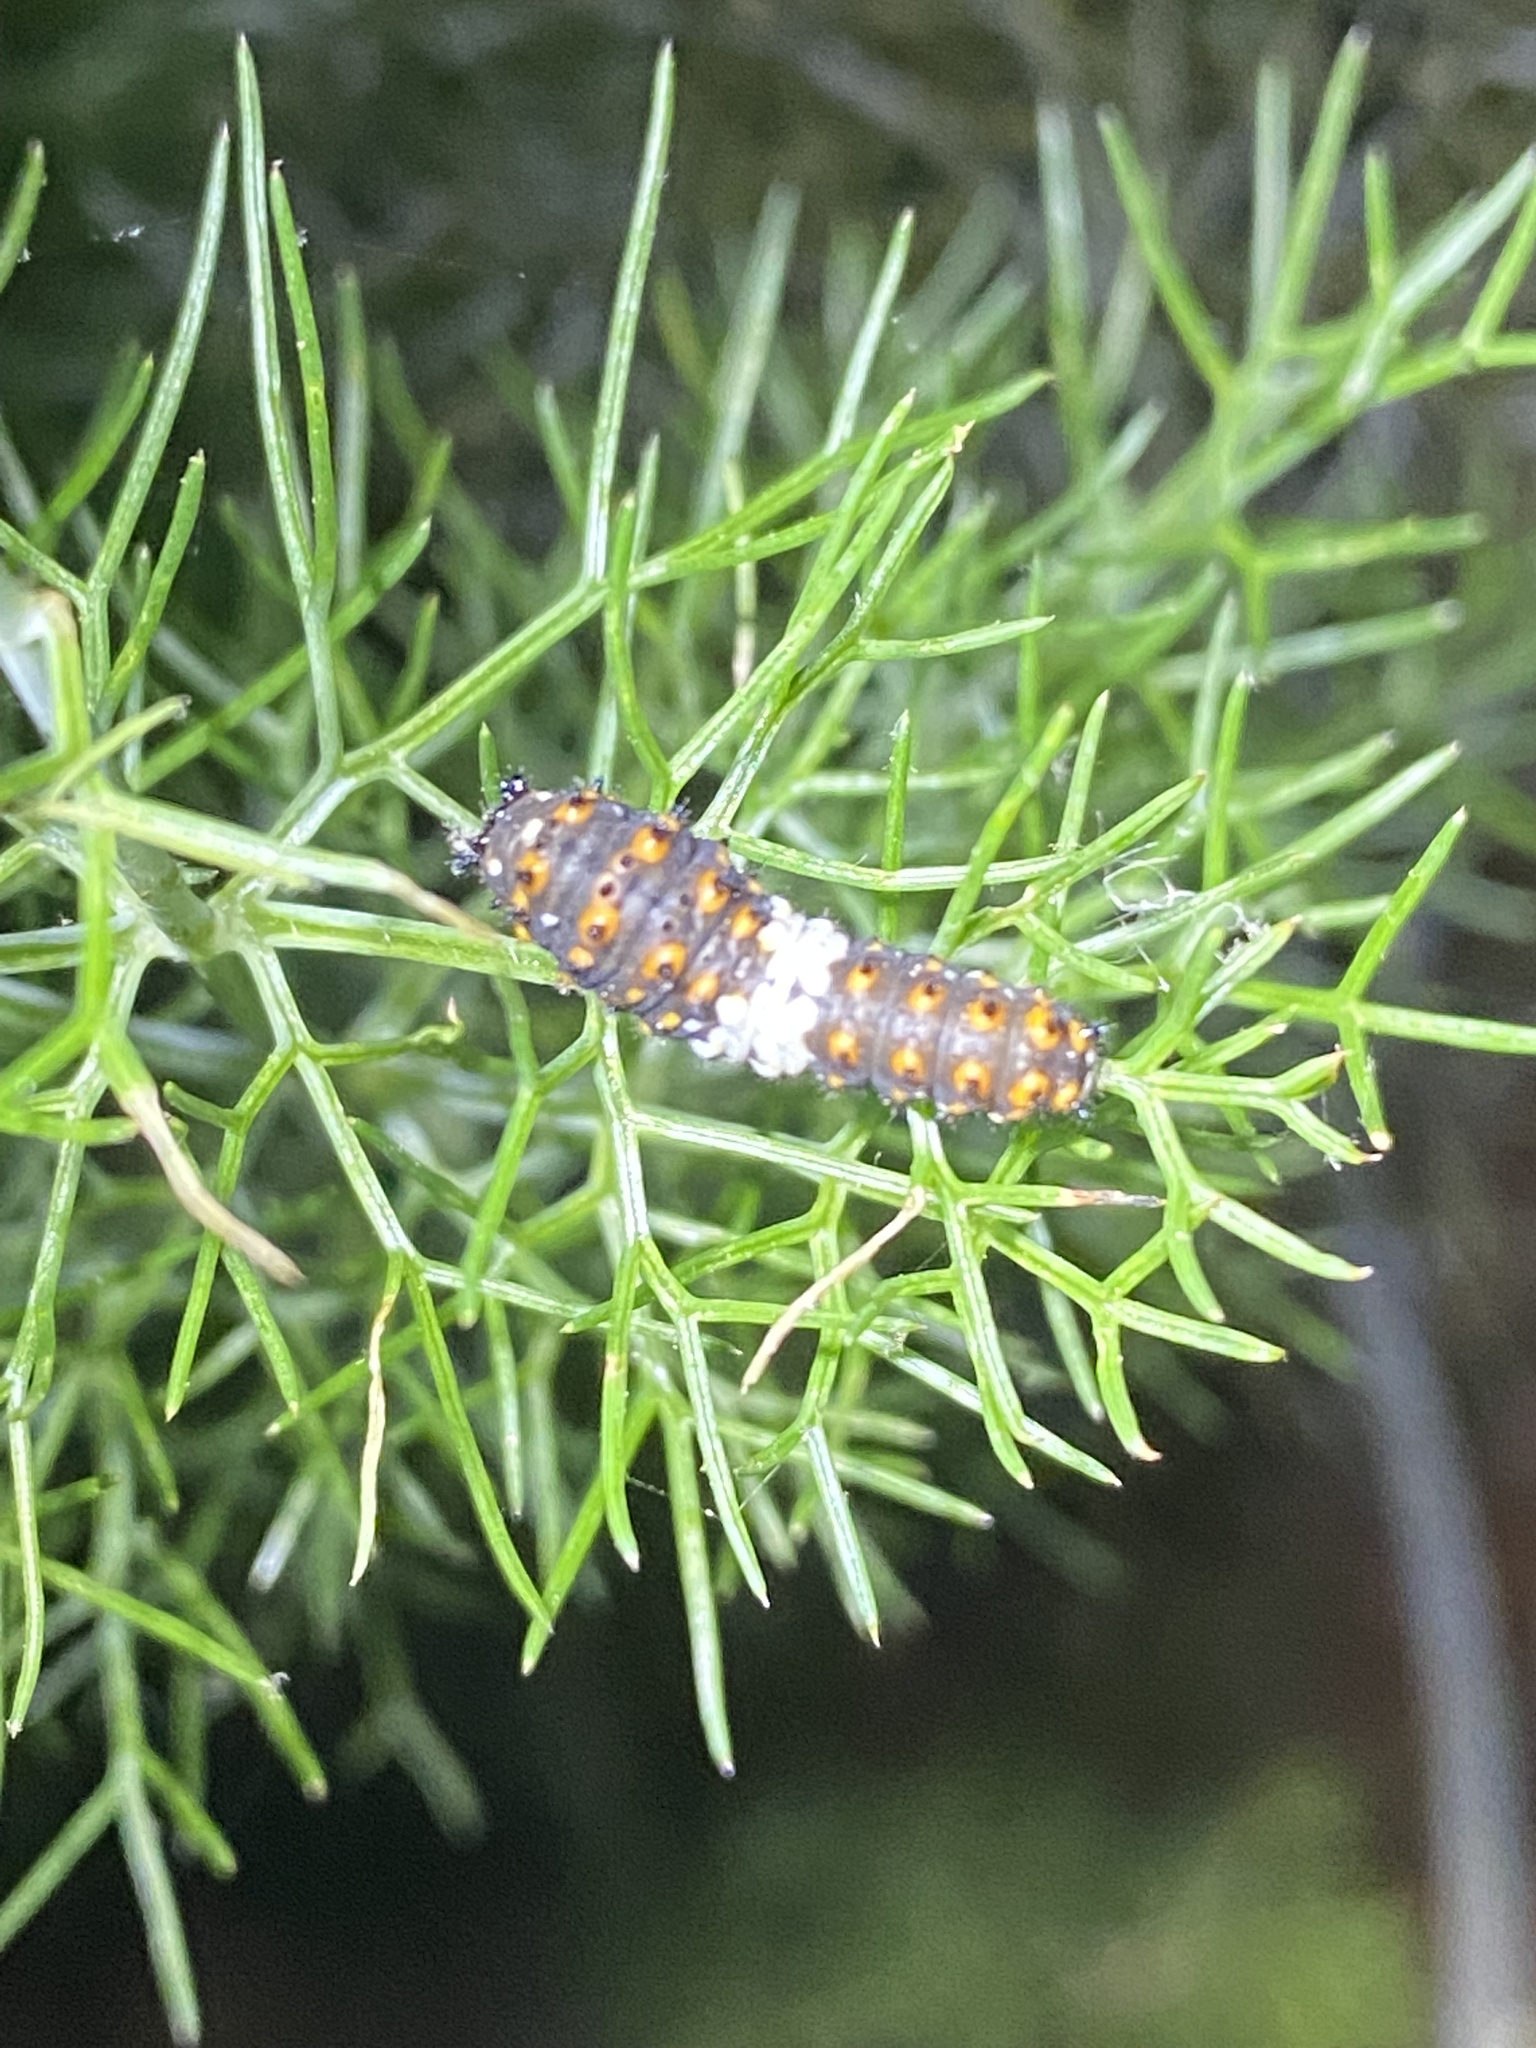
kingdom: Animalia
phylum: Arthropoda
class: Insecta
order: Lepidoptera
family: Papilionidae
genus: Papilio
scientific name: Papilio polyxenes
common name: Black swallowtail
